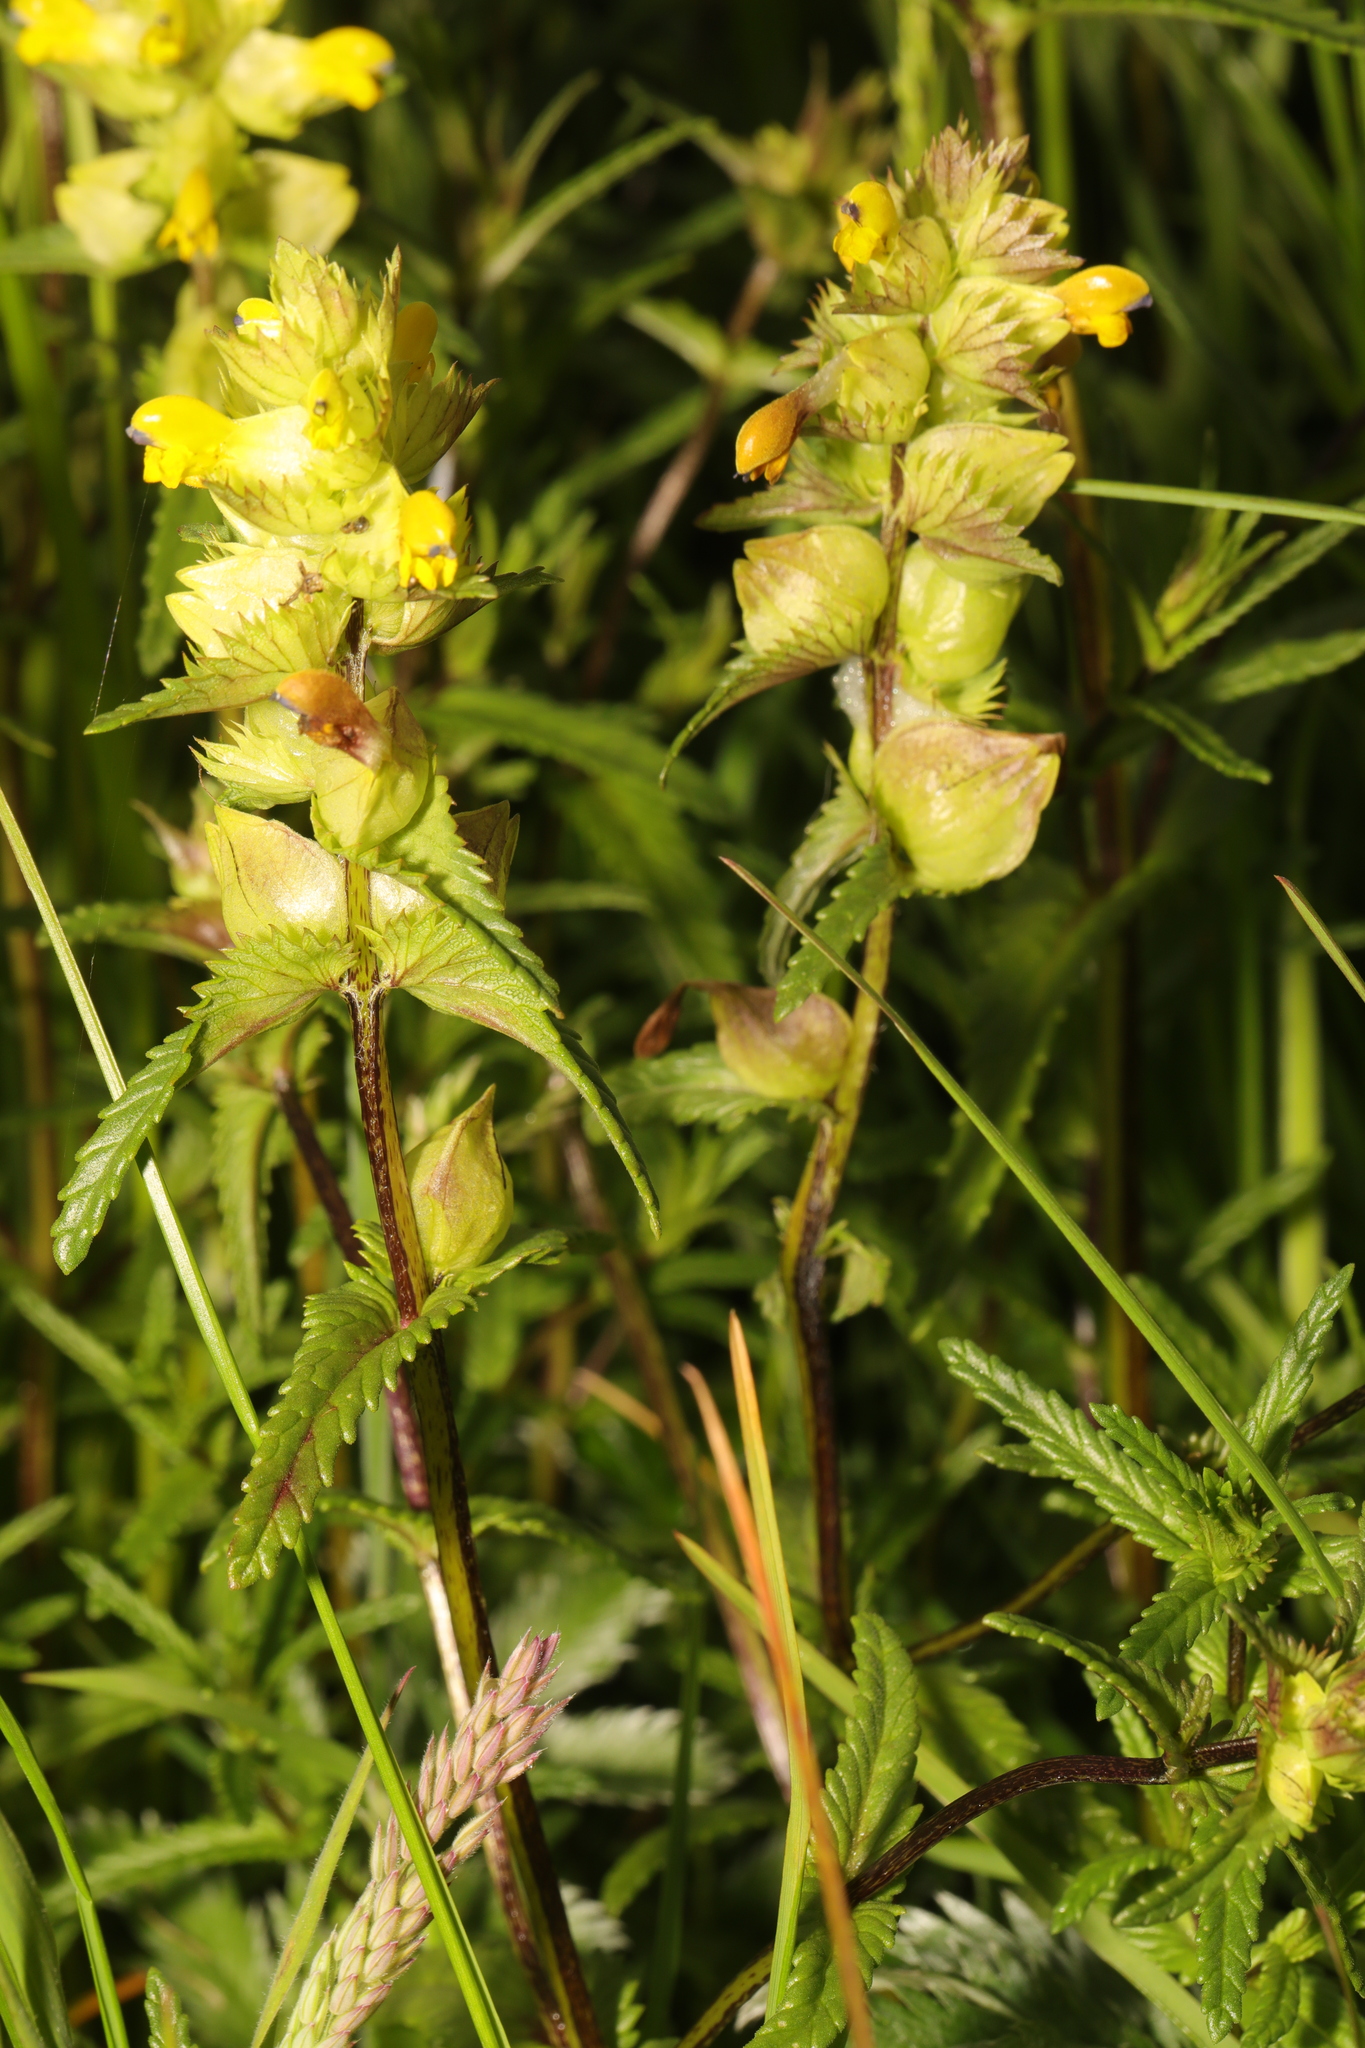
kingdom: Plantae
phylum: Tracheophyta
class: Magnoliopsida
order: Lamiales
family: Orobanchaceae
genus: Rhinanthus
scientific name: Rhinanthus minor
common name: Yellow-rattle
